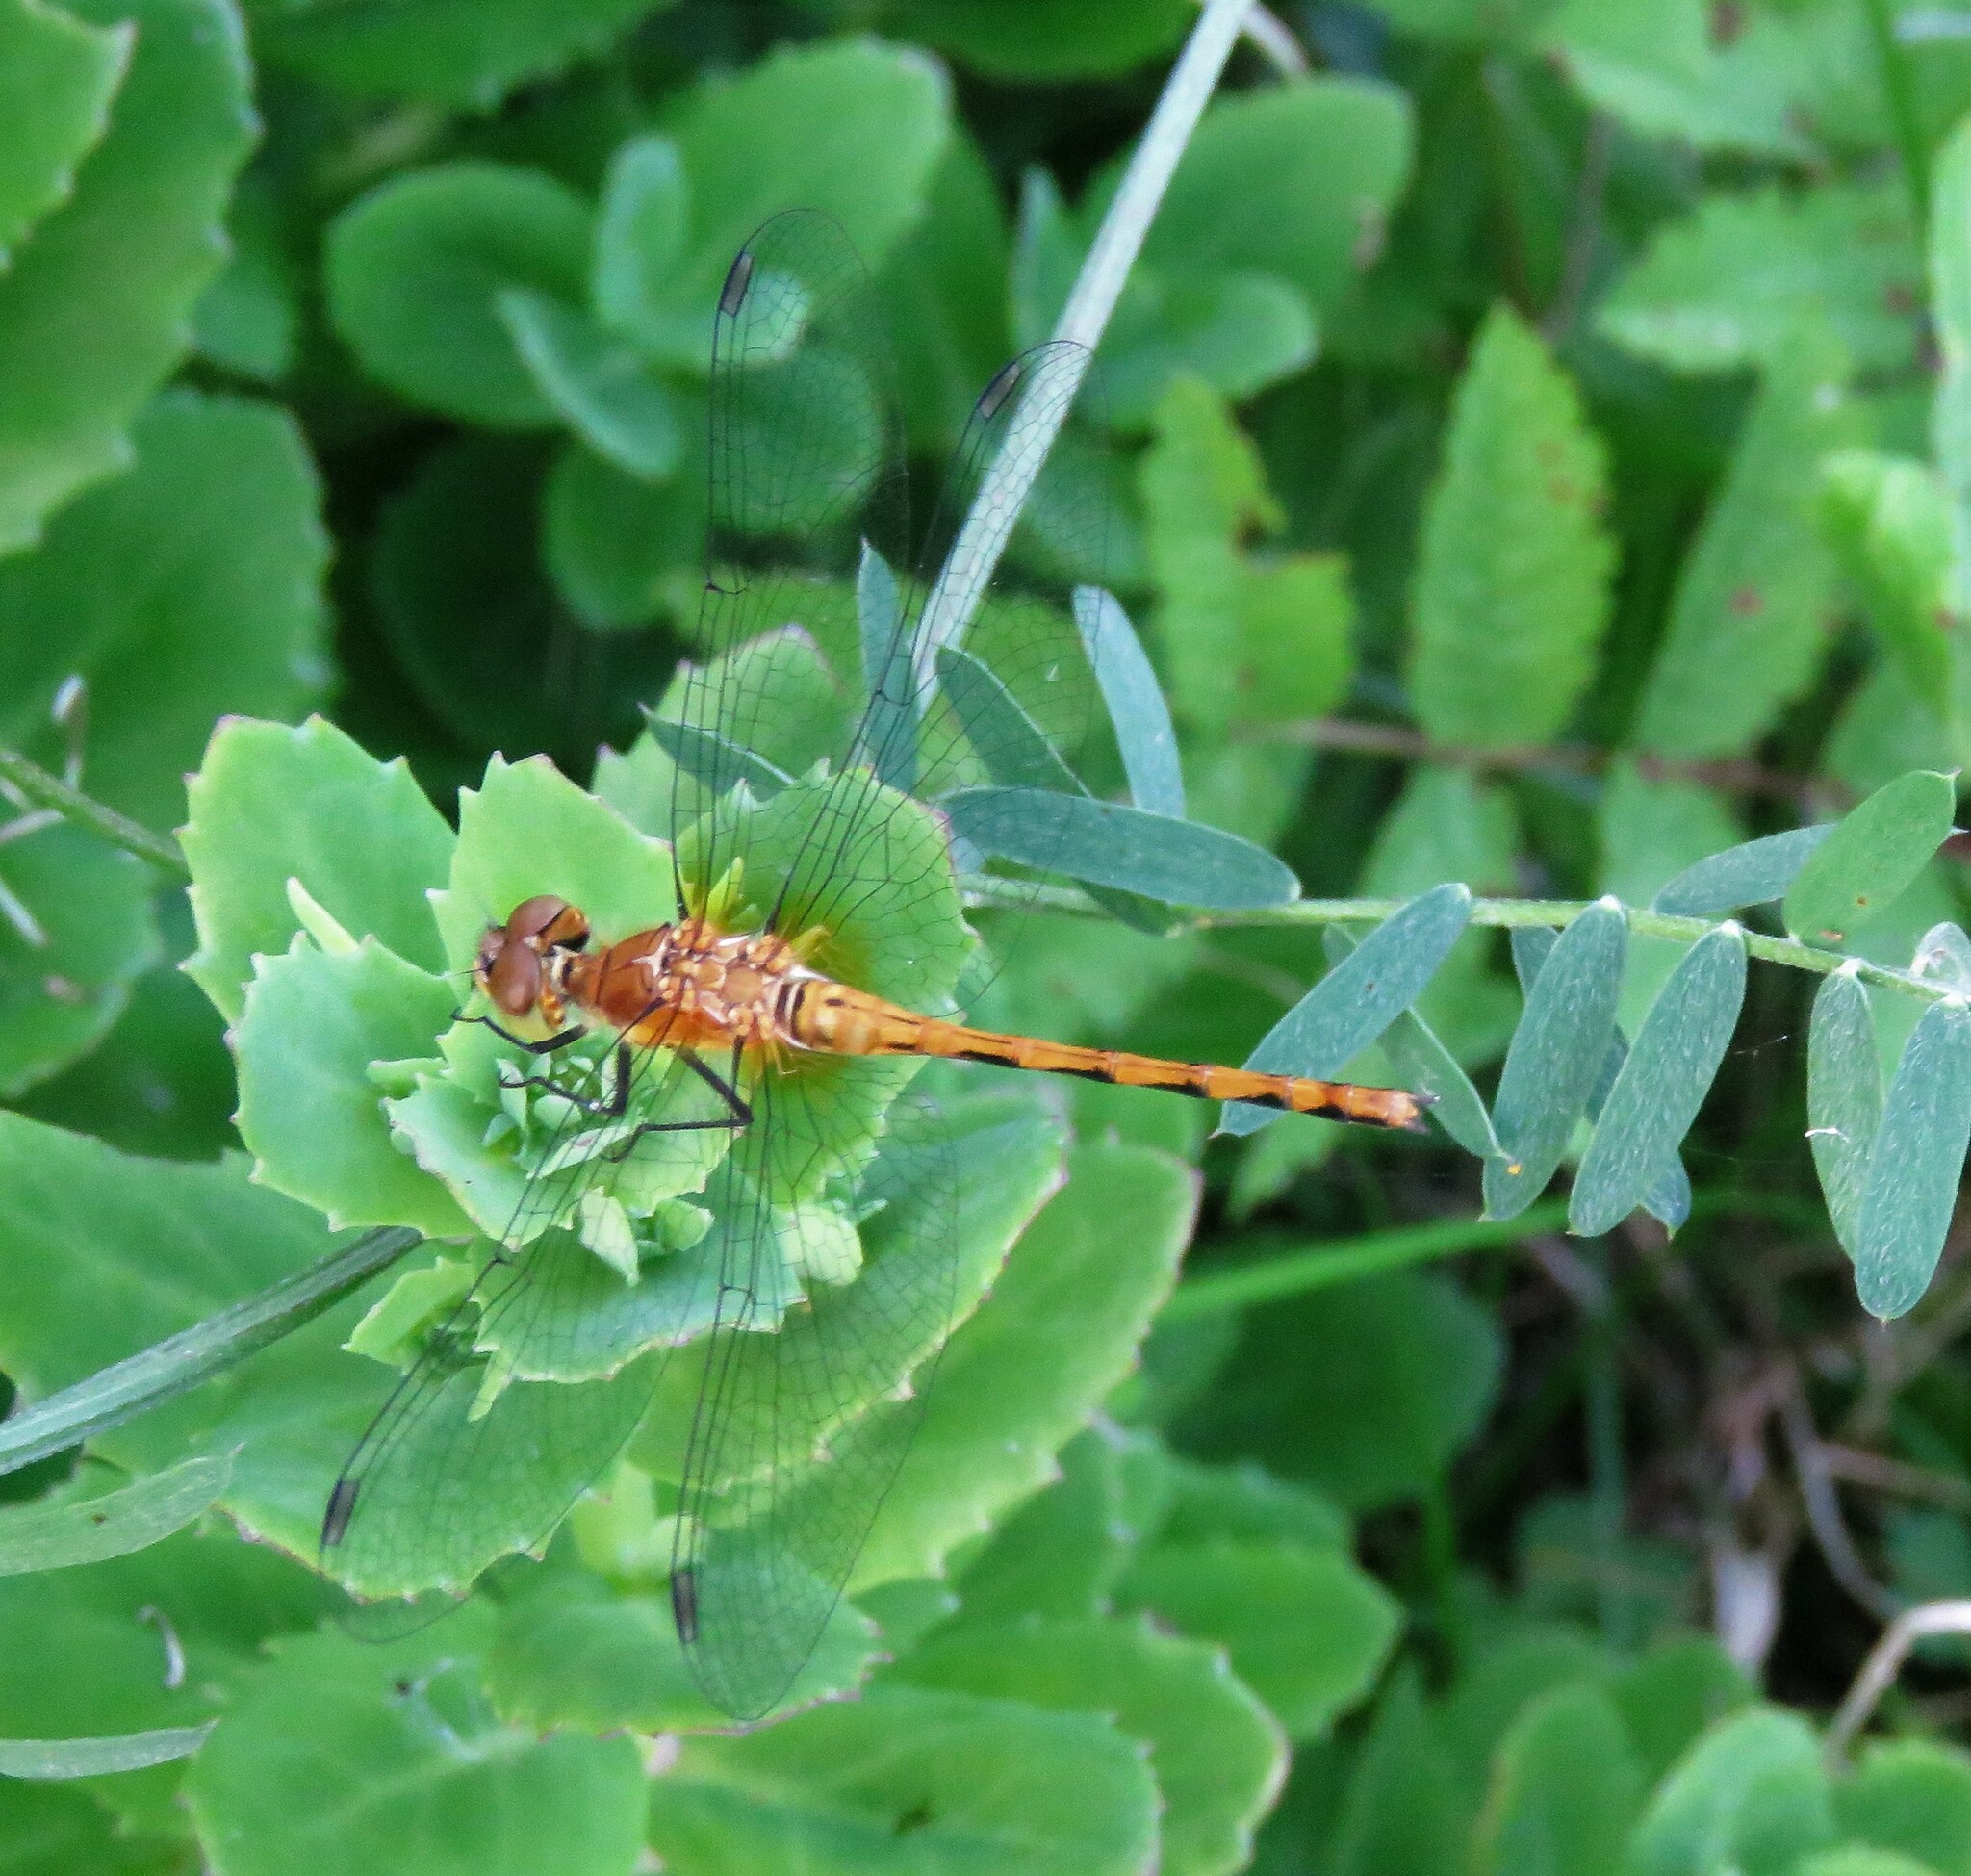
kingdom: Animalia
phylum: Arthropoda
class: Insecta
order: Odonata
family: Libellulidae
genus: Sympetrum
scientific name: Sympetrum obtrusum
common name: White-faced meadowhawk
